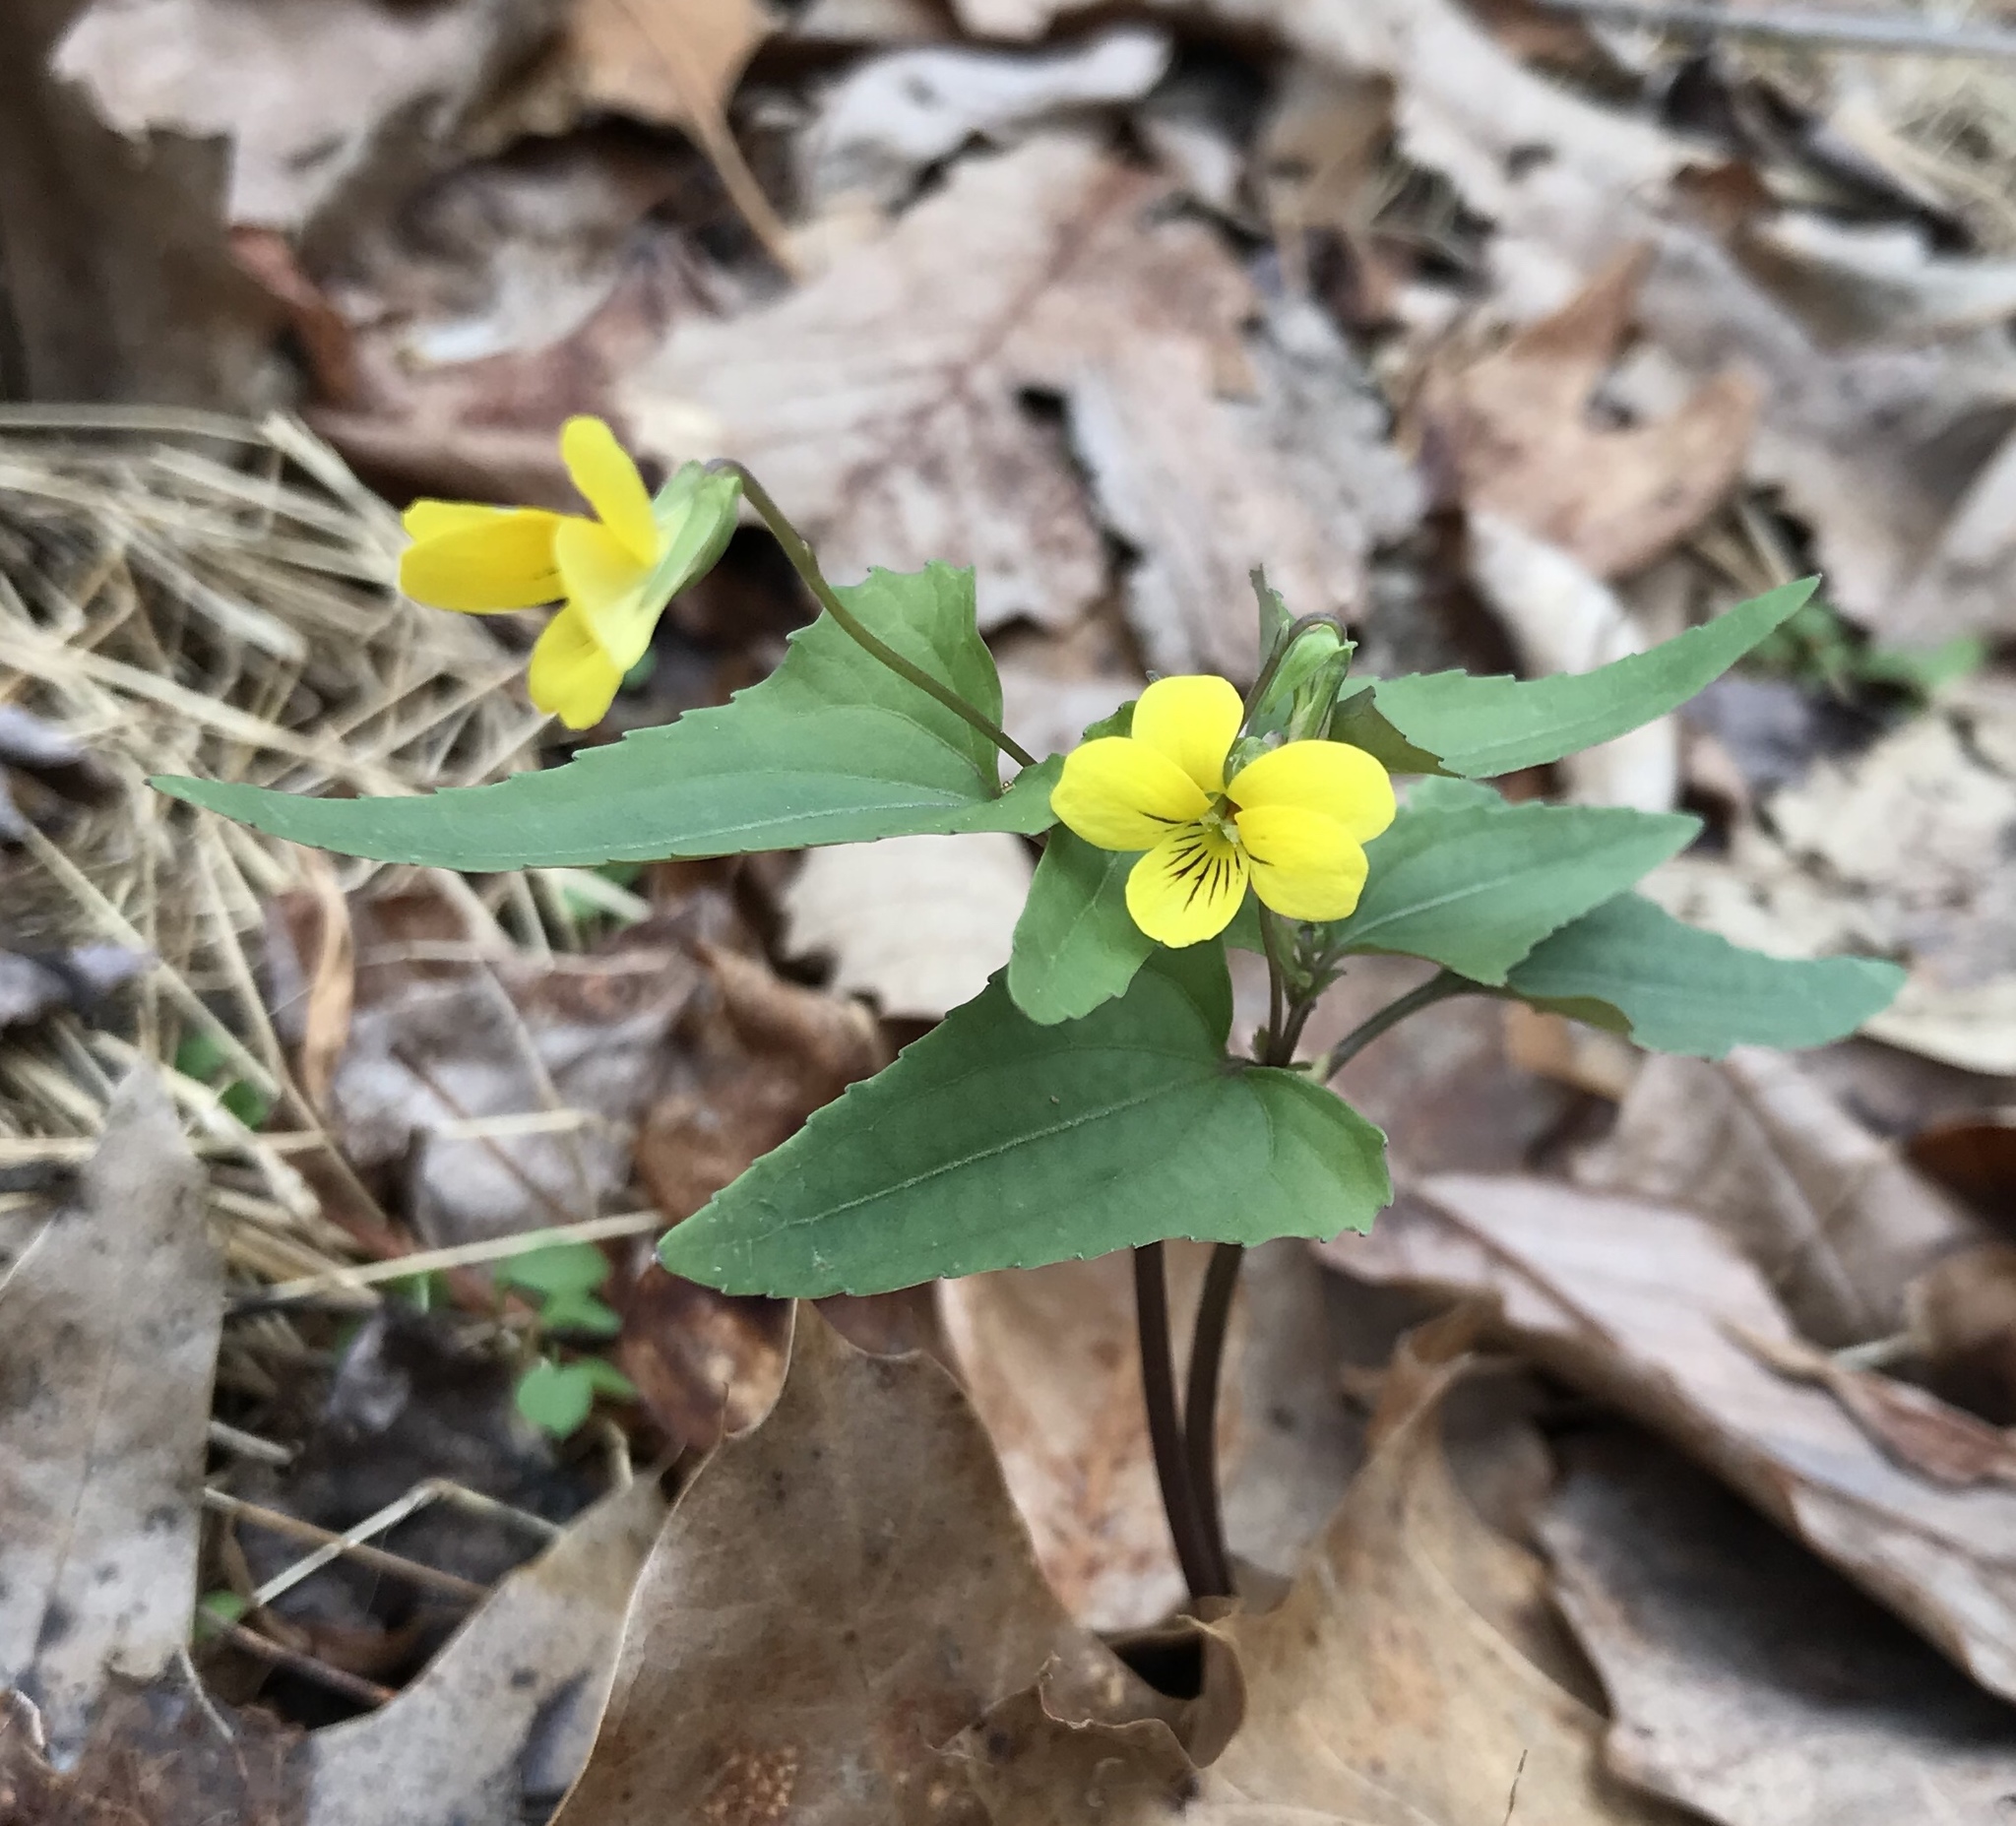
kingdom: Plantae
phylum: Tracheophyta
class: Magnoliopsida
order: Malpighiales
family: Violaceae
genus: Viola
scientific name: Viola hastata
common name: Spear-leaf violet
